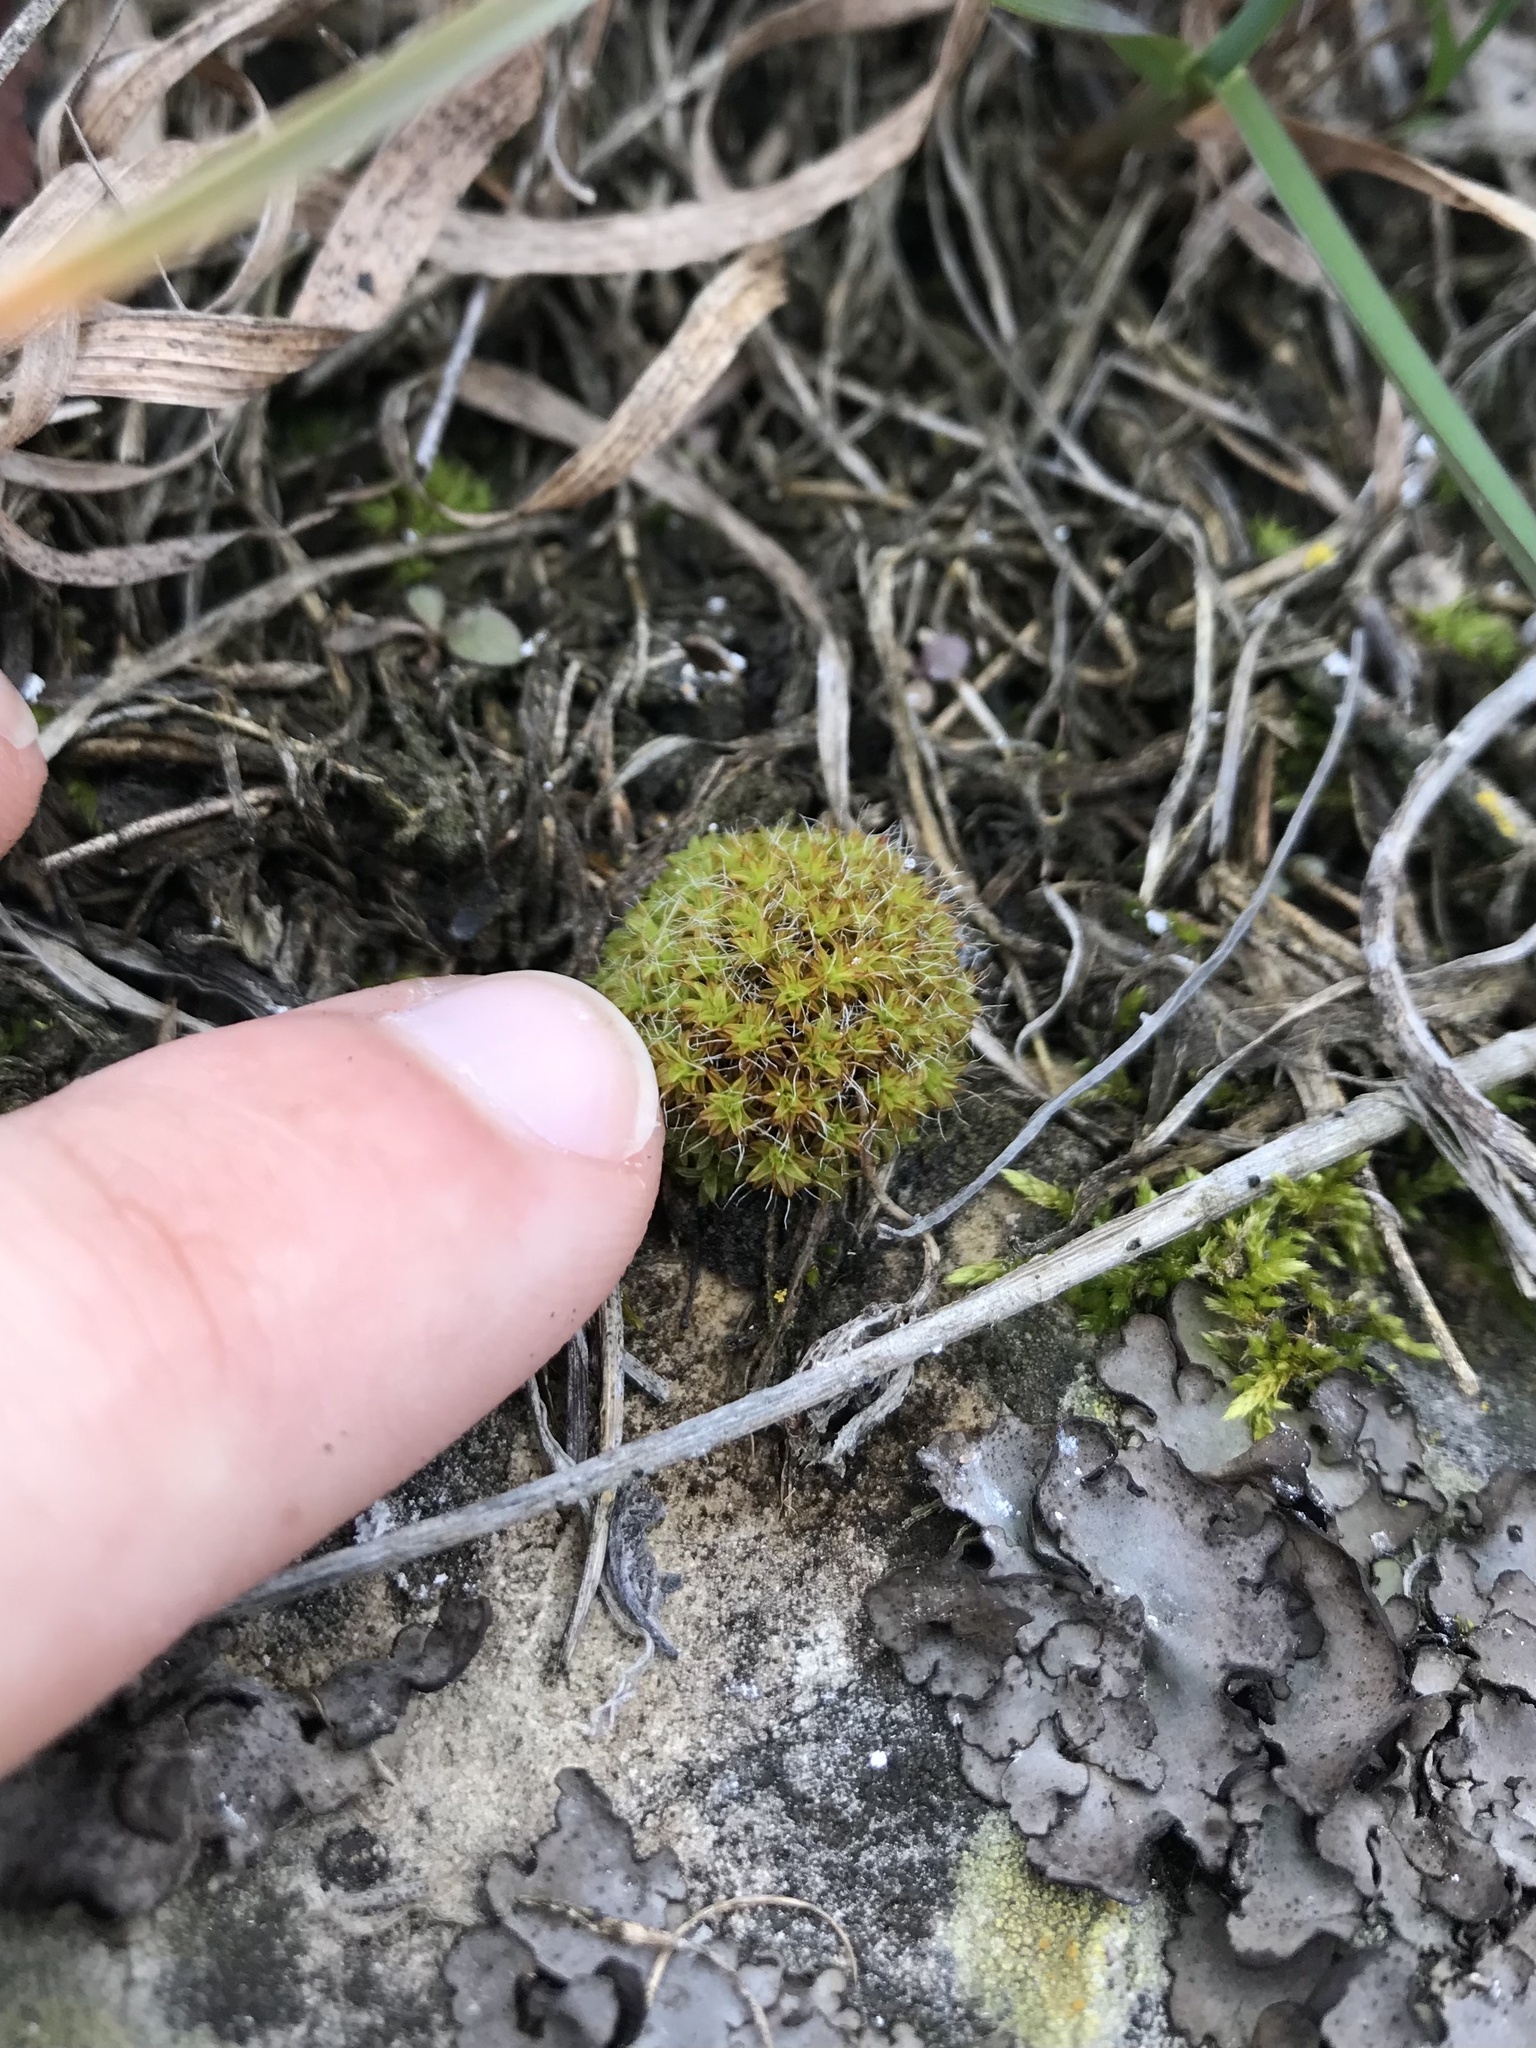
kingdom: Plantae
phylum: Bryophyta
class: Bryopsida
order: Pottiales
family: Pottiaceae
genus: Syntrichia
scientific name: Syntrichia ruralis
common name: Sidewalk screw moss
